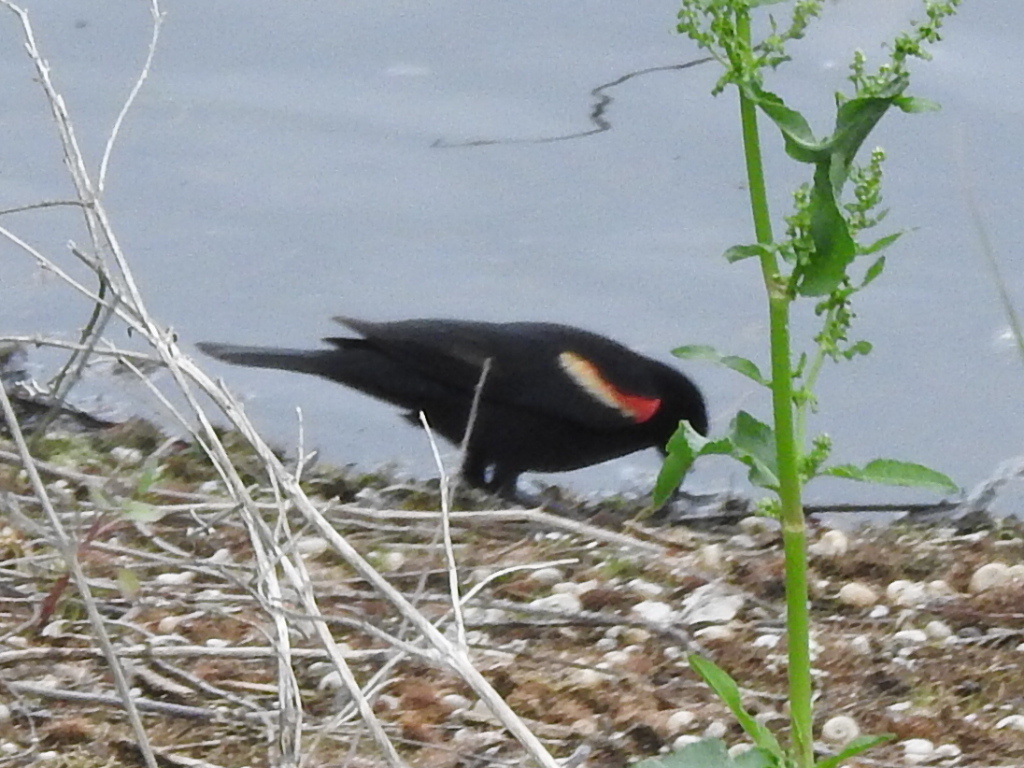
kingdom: Animalia
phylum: Chordata
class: Aves
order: Passeriformes
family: Icteridae
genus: Agelaius
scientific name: Agelaius phoeniceus
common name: Red-winged blackbird
